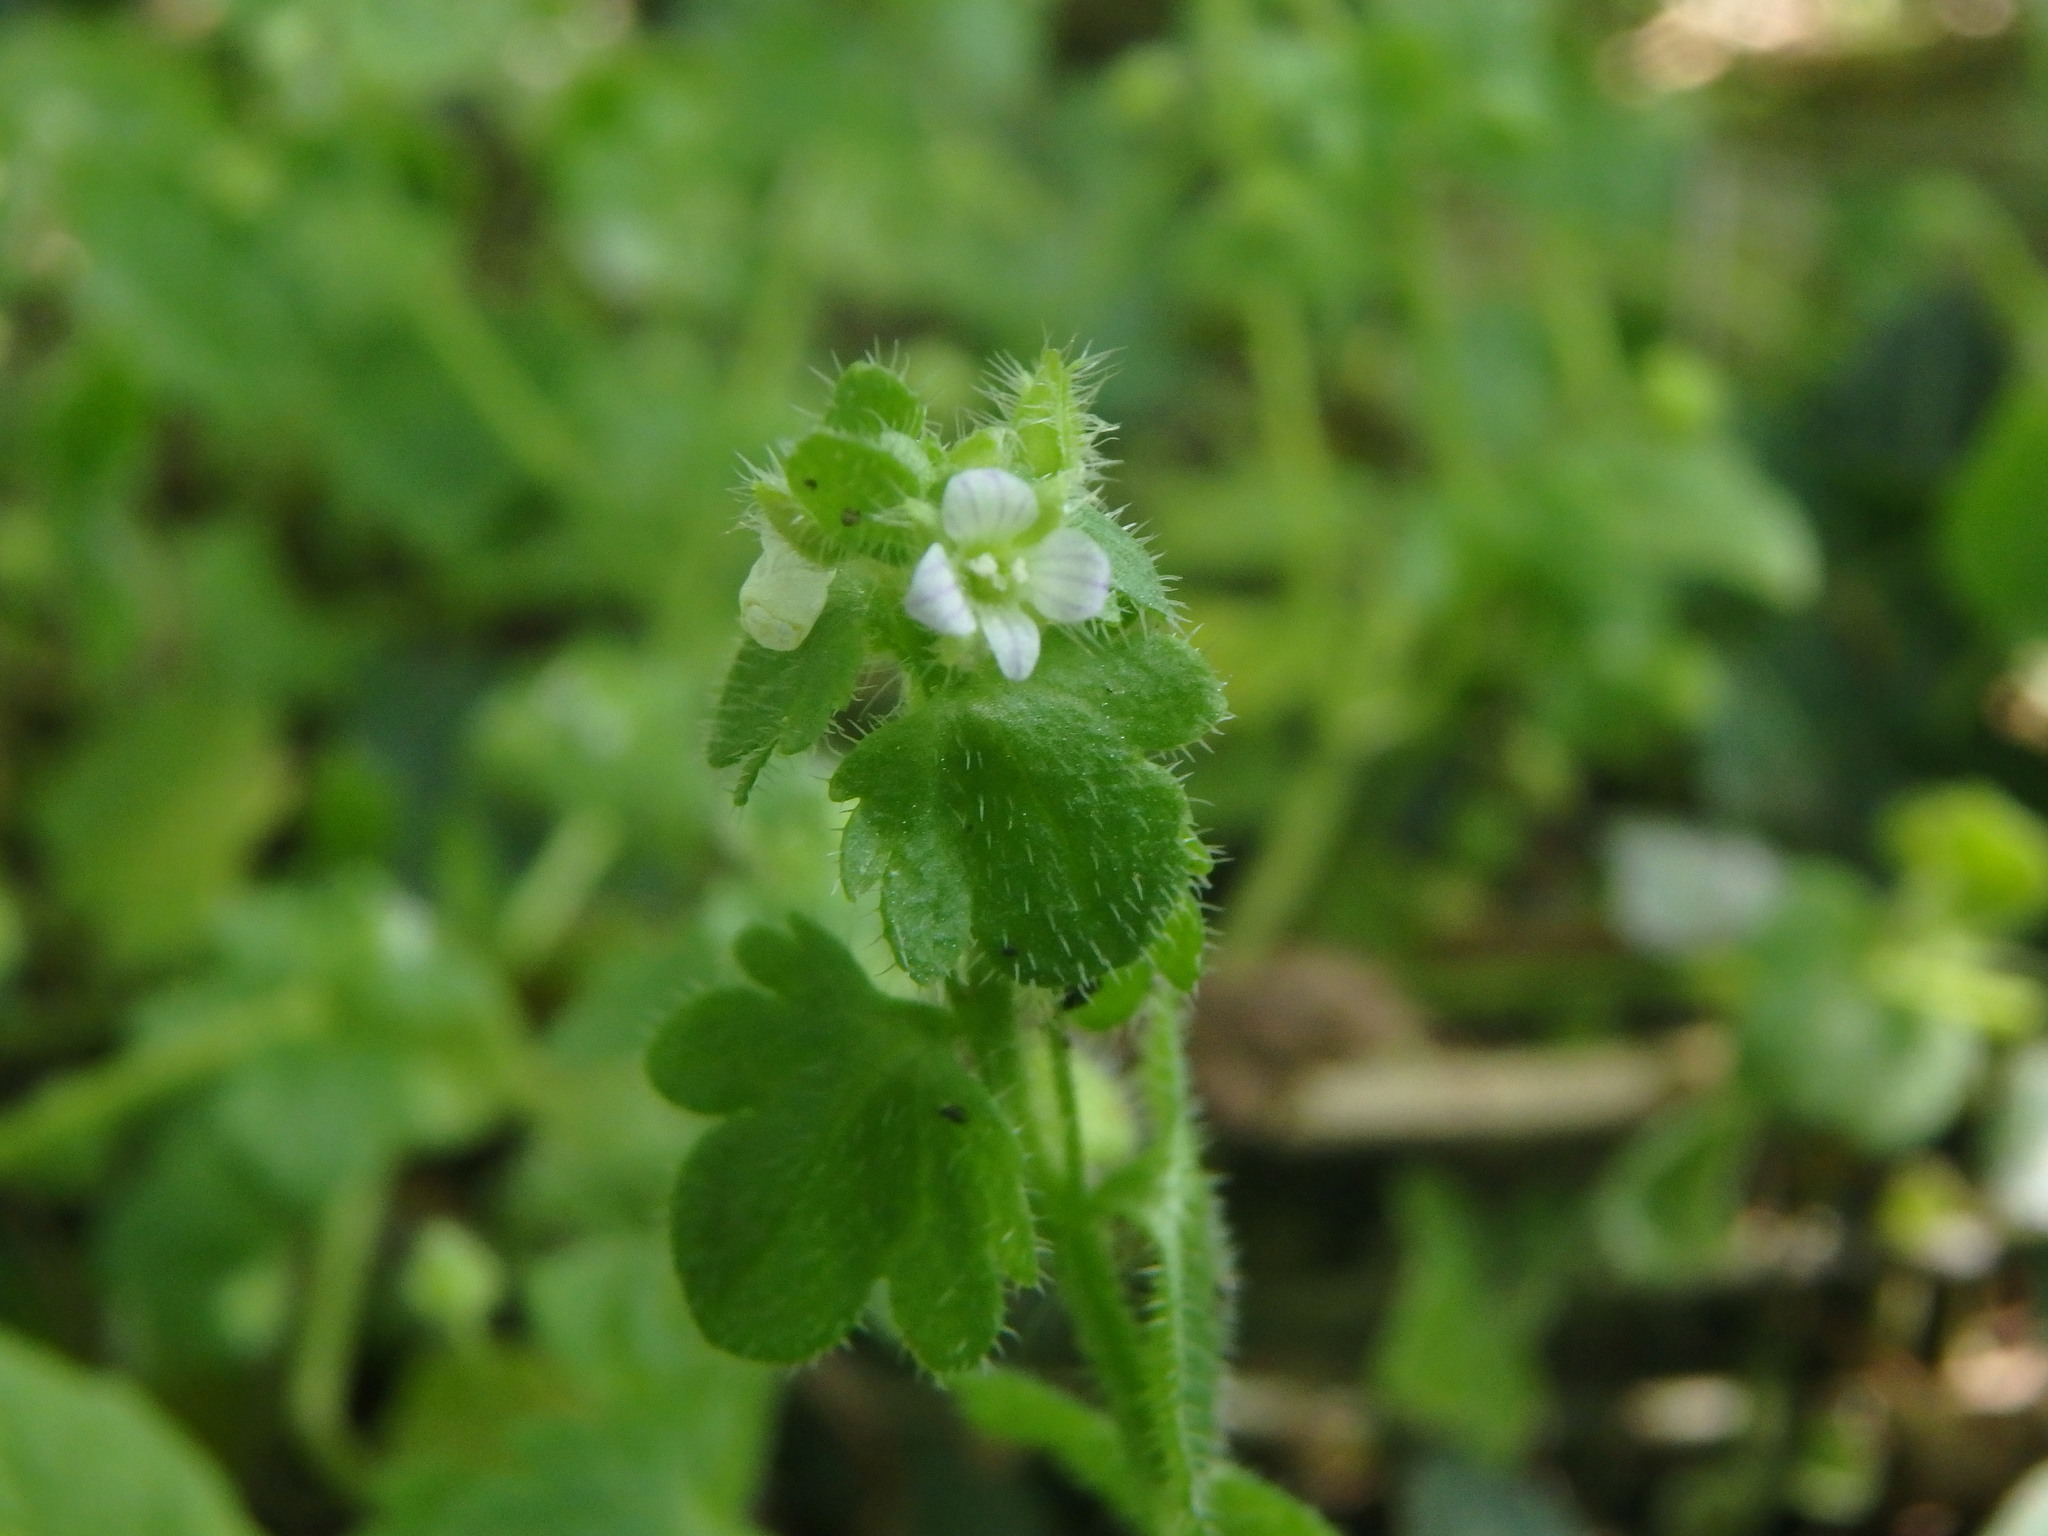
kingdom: Plantae
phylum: Tracheophyta
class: Magnoliopsida
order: Lamiales
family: Plantaginaceae
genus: Veronica
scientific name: Veronica sublobata
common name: False ivy-leaved speedwell
